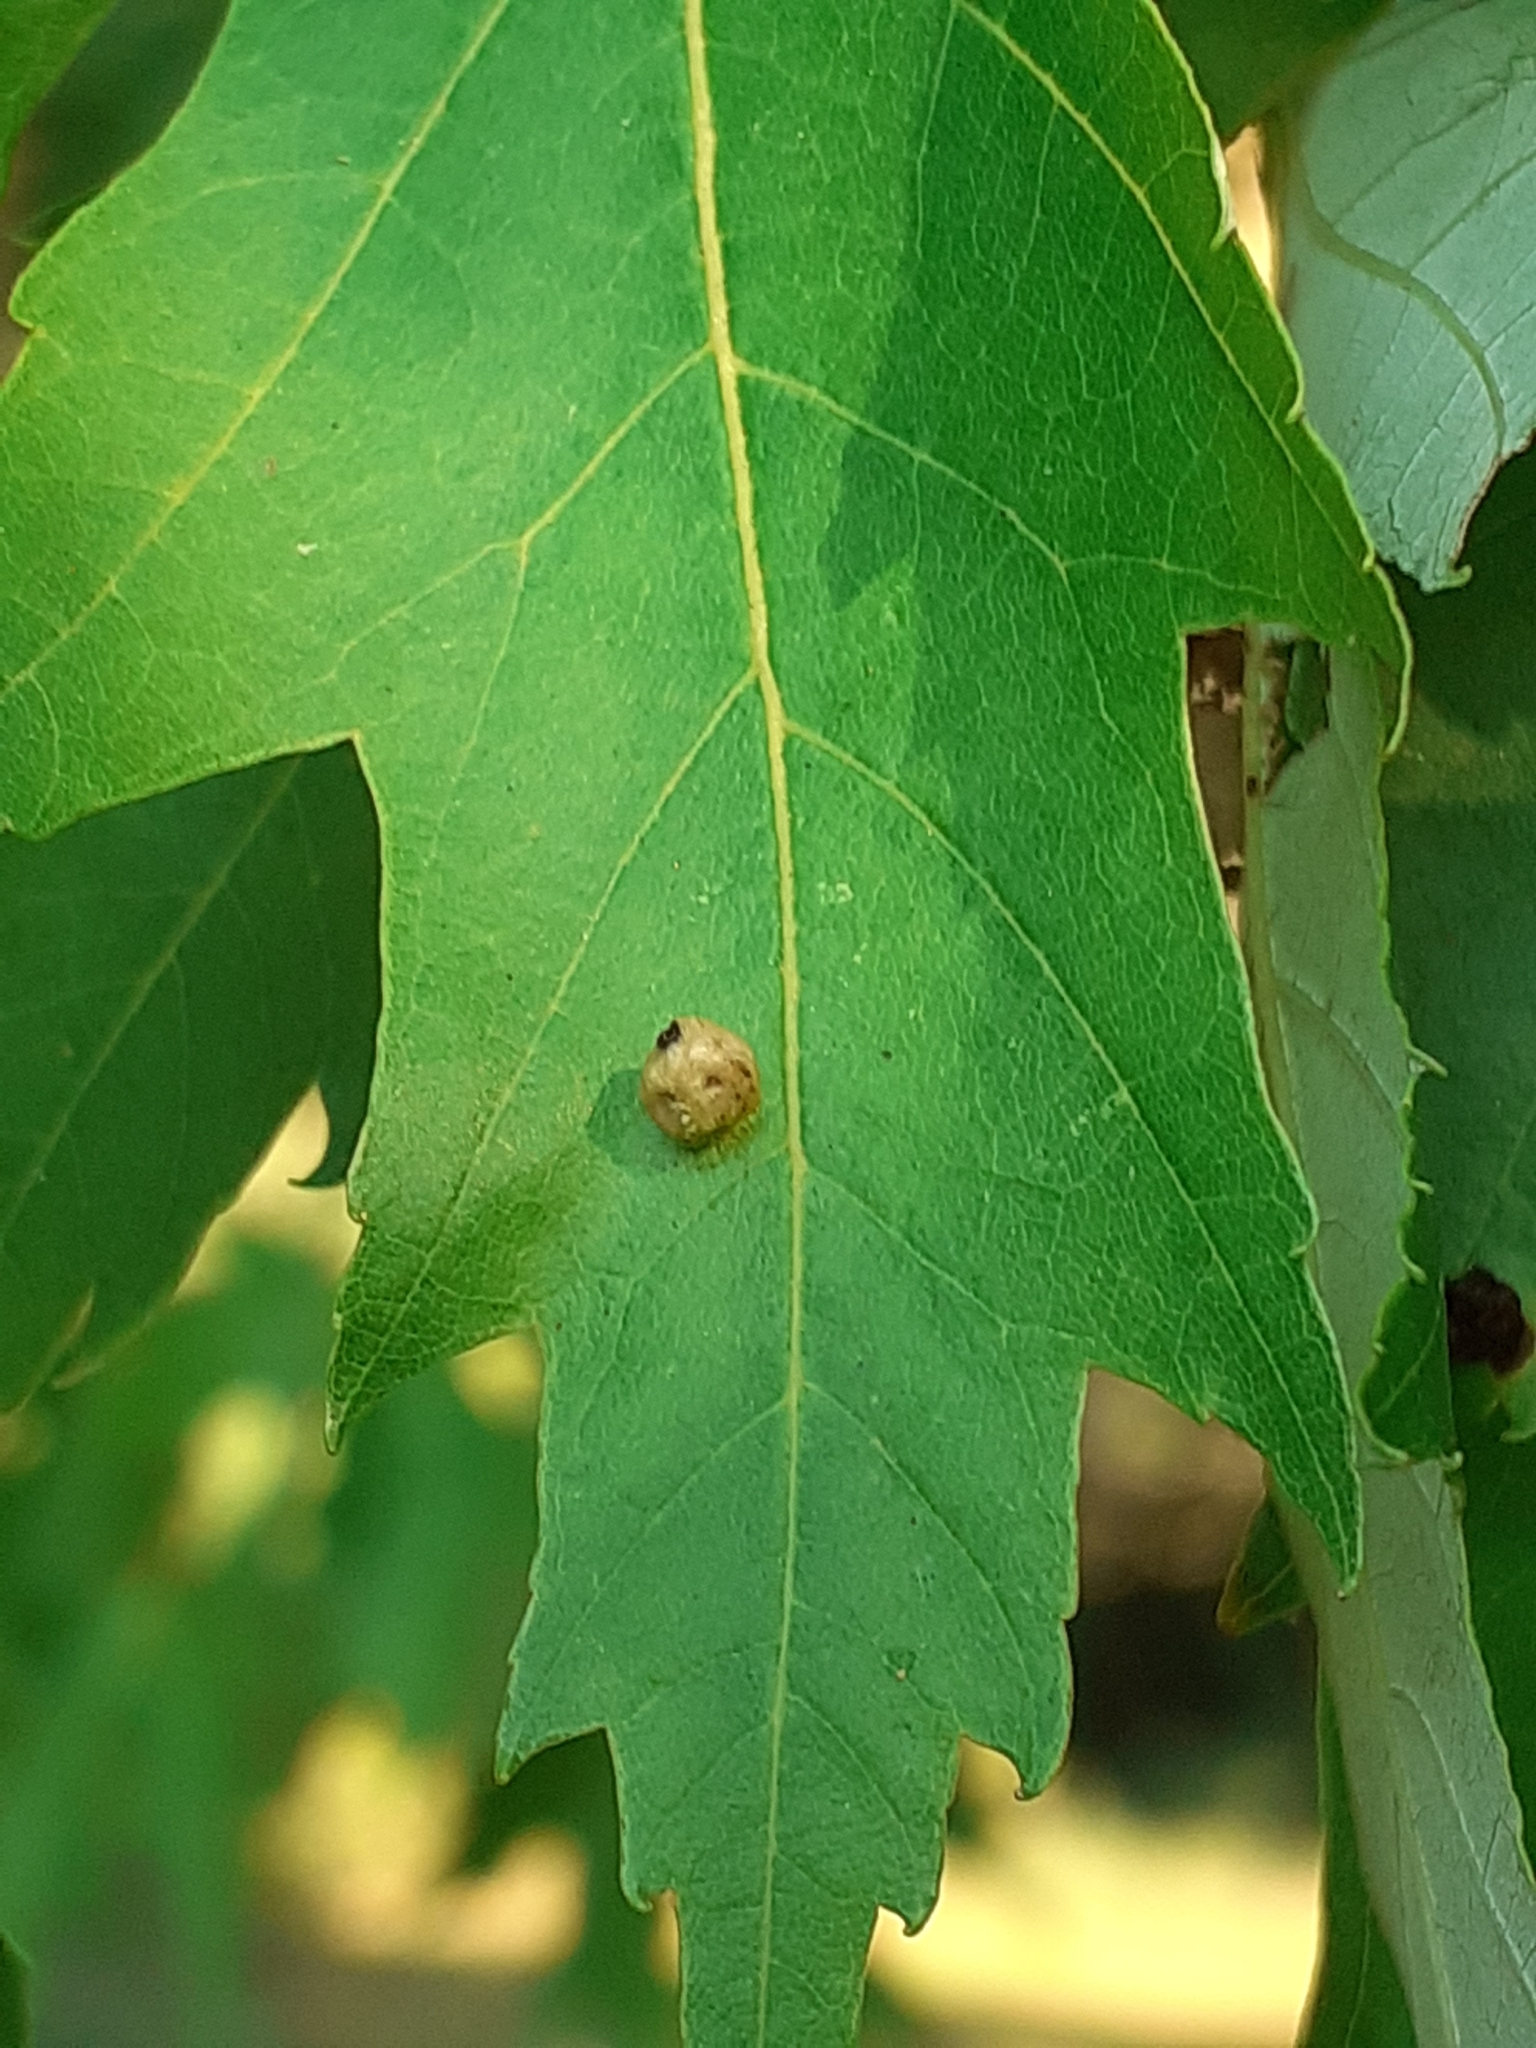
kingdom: Animalia
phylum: Arthropoda
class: Arachnida
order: Trombidiformes
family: Eriophyidae
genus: Vasates
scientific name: Vasates quadripedes
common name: Maple bladder gall mite
